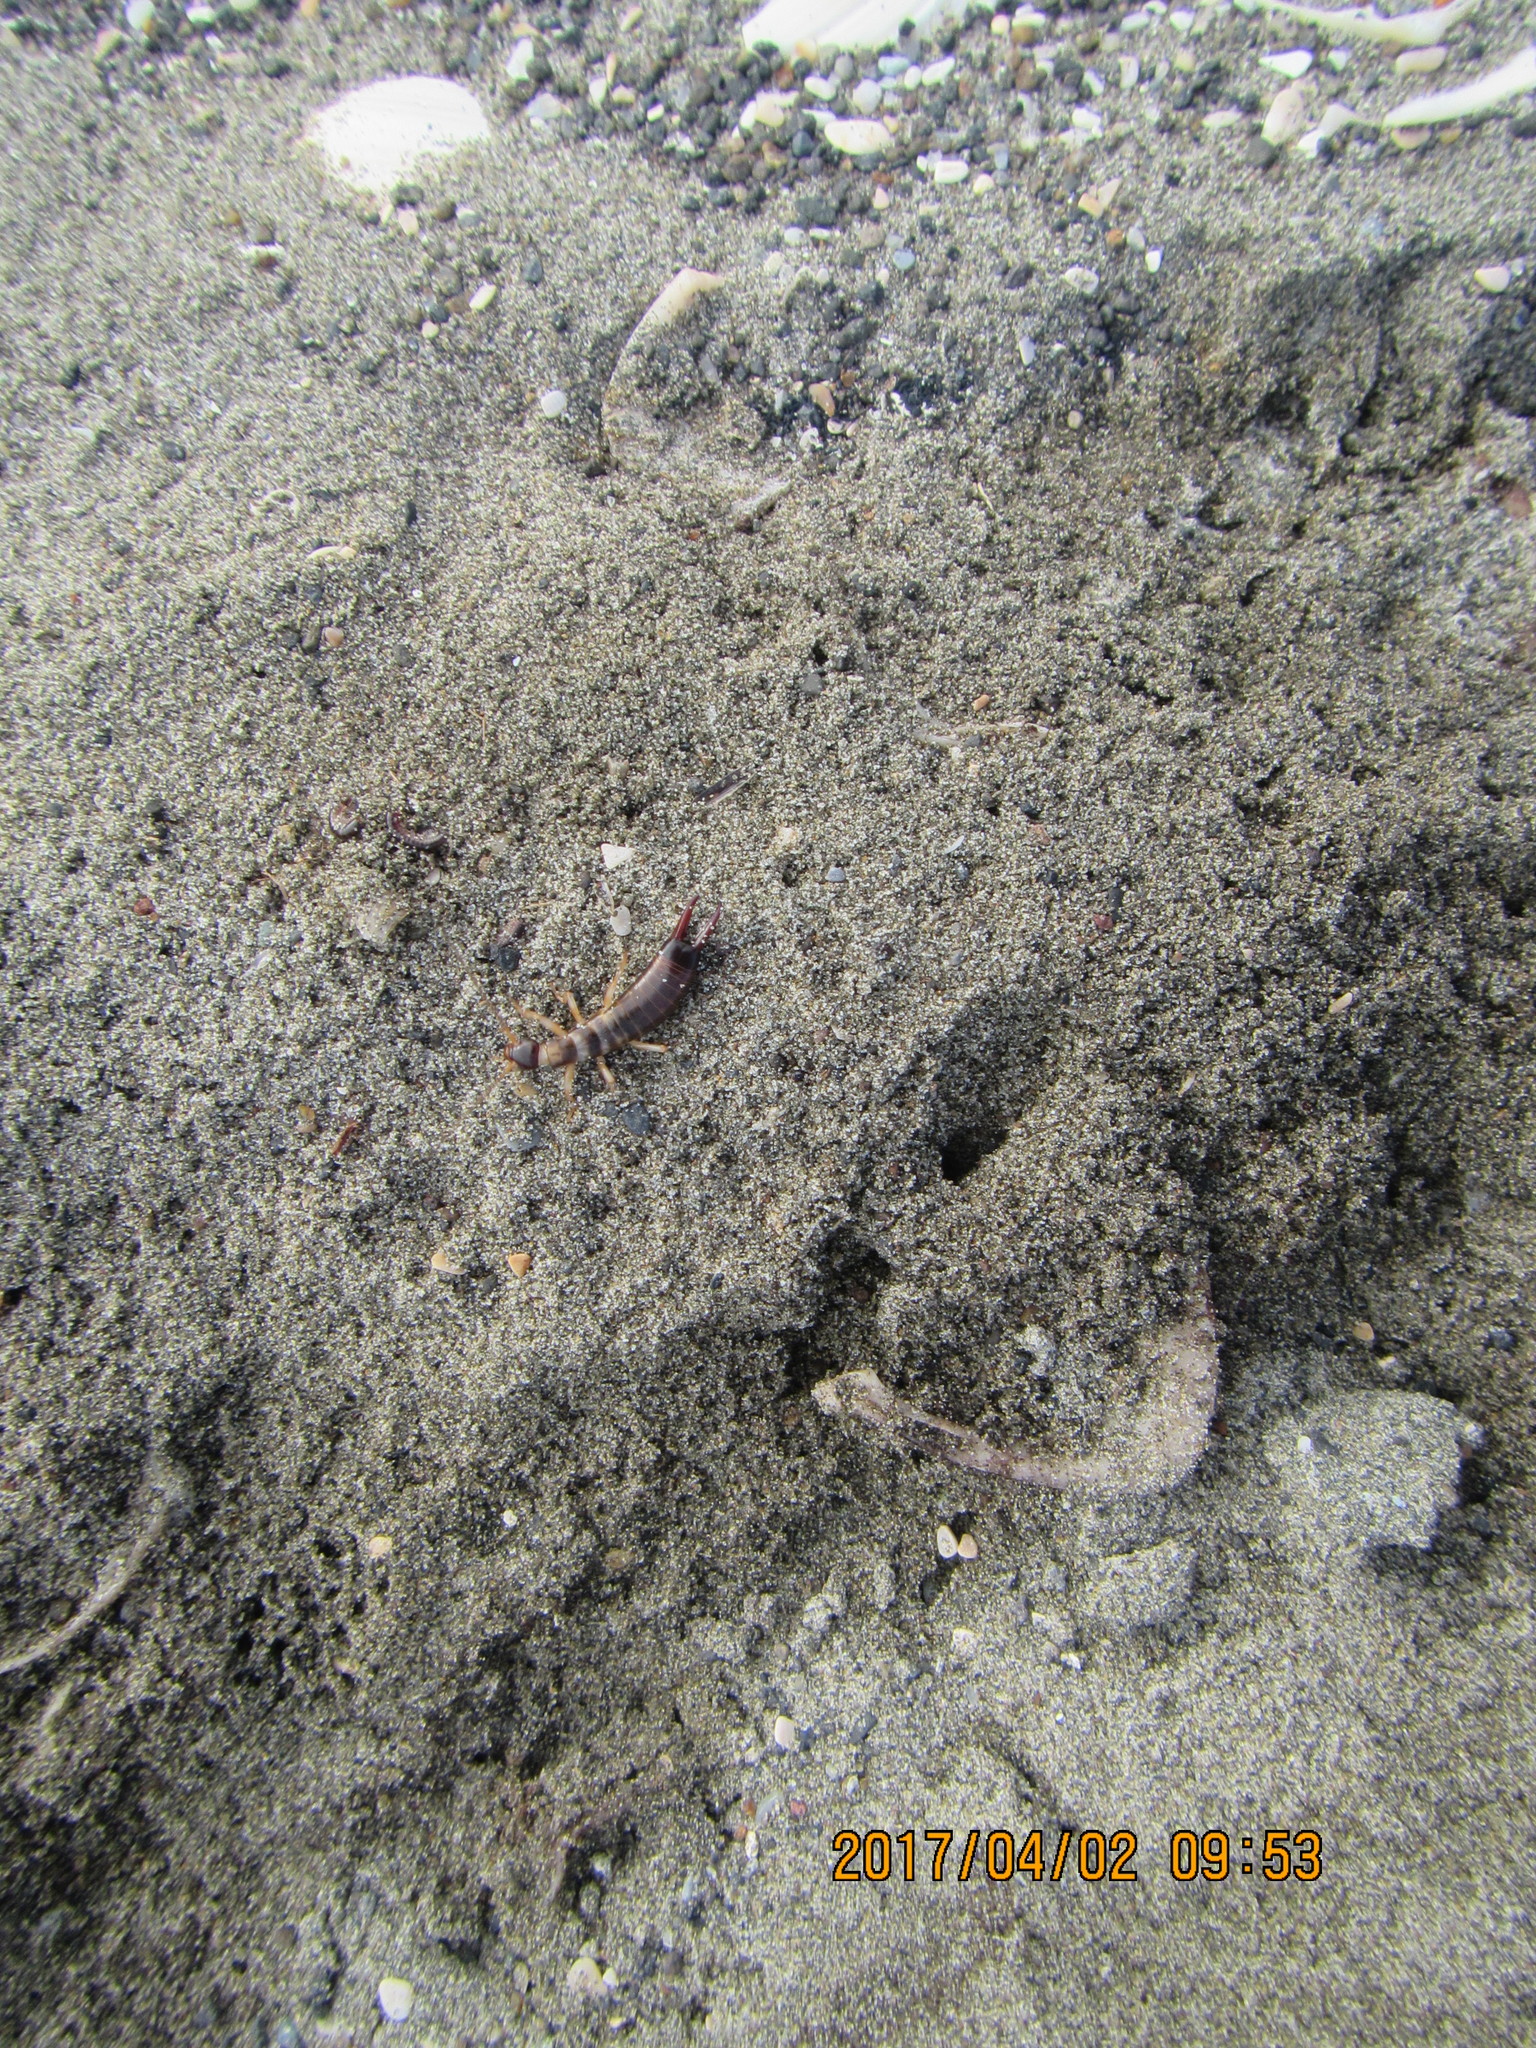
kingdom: Animalia
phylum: Arthropoda
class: Insecta
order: Dermaptera
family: Anisolabididae
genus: Anisolabis
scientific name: Anisolabis littorea
